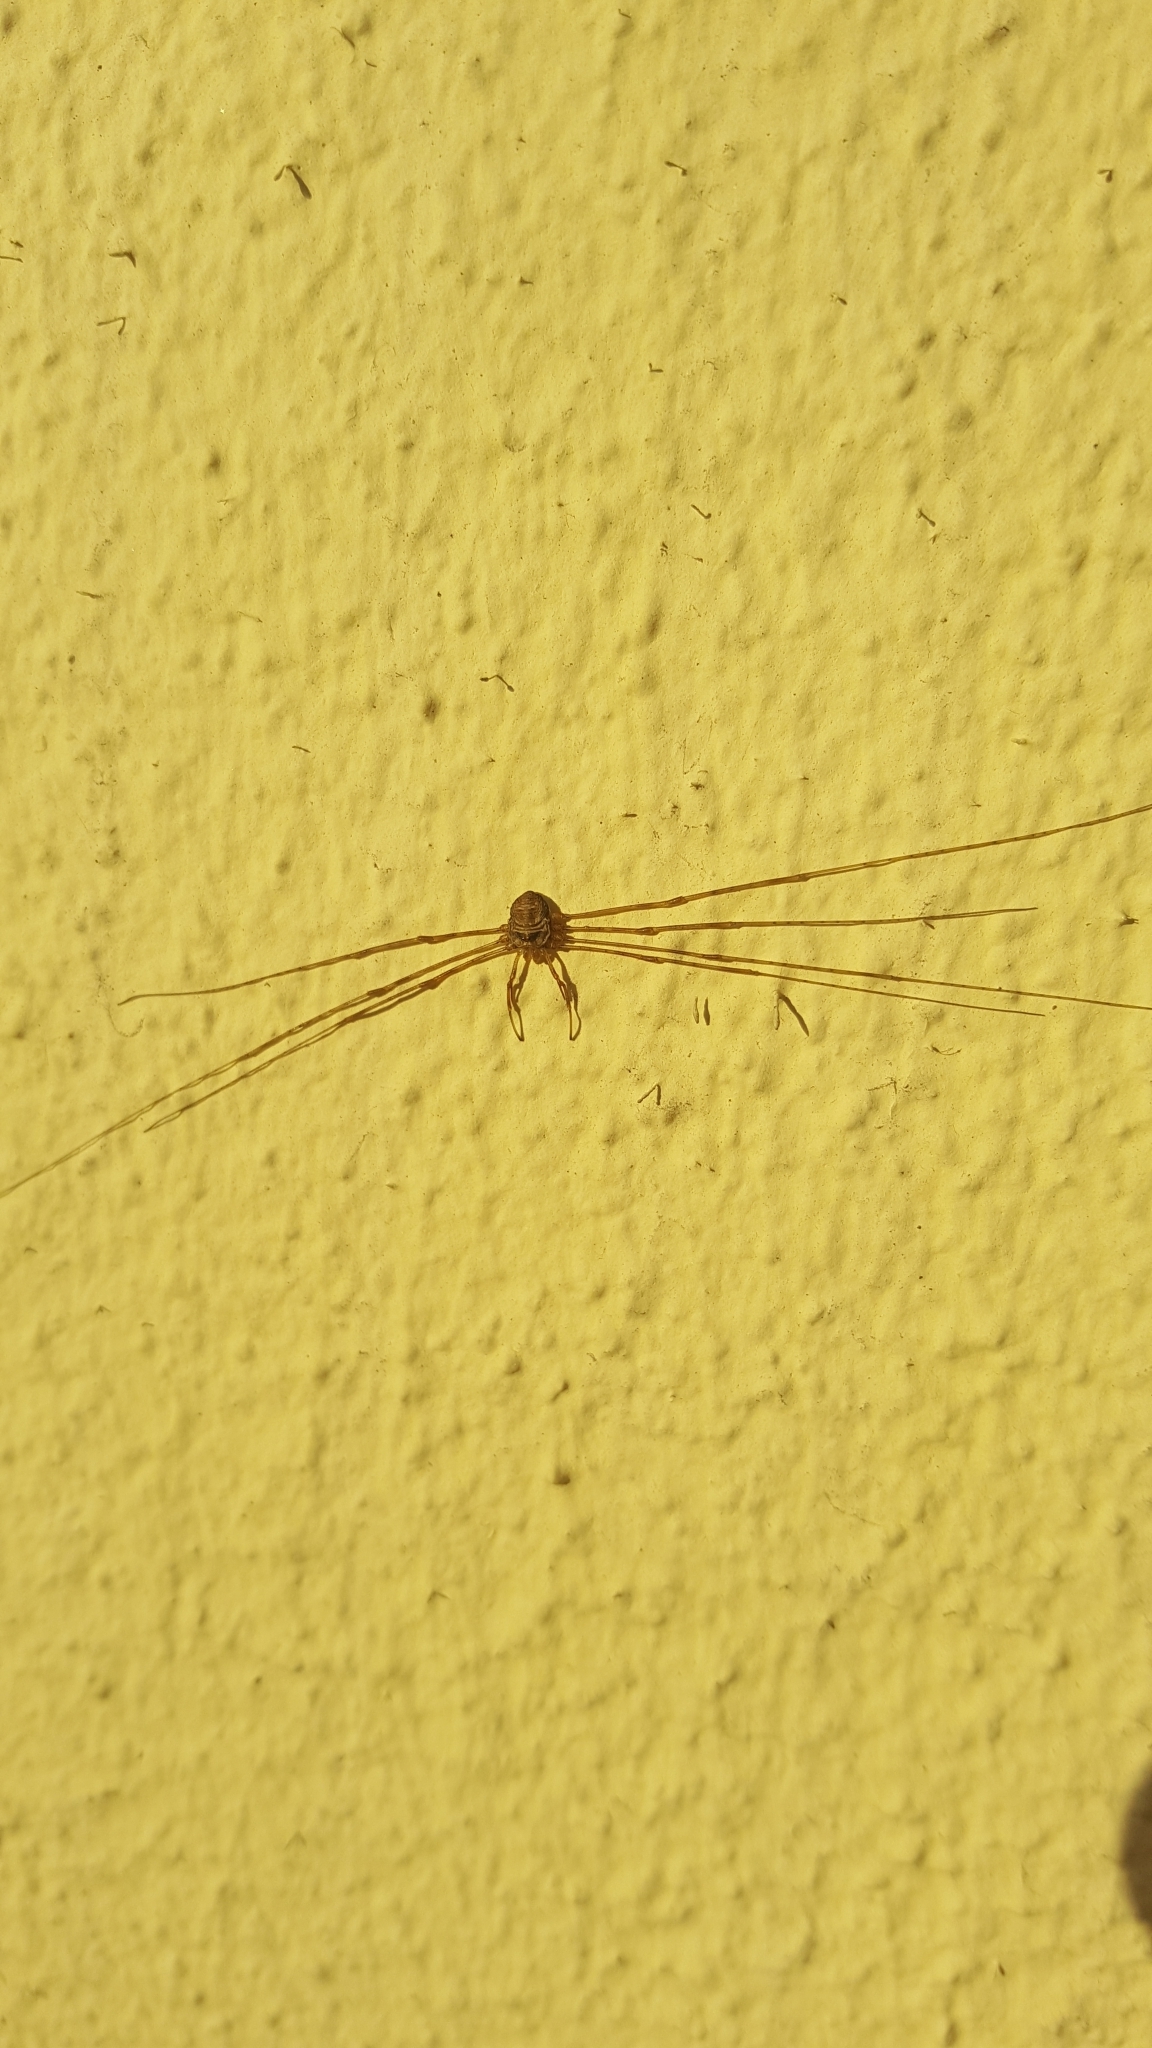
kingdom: Animalia
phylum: Arthropoda
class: Arachnida
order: Opiliones
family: Phalangiidae
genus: Dicranopalpus
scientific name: Dicranopalpus ramosus
